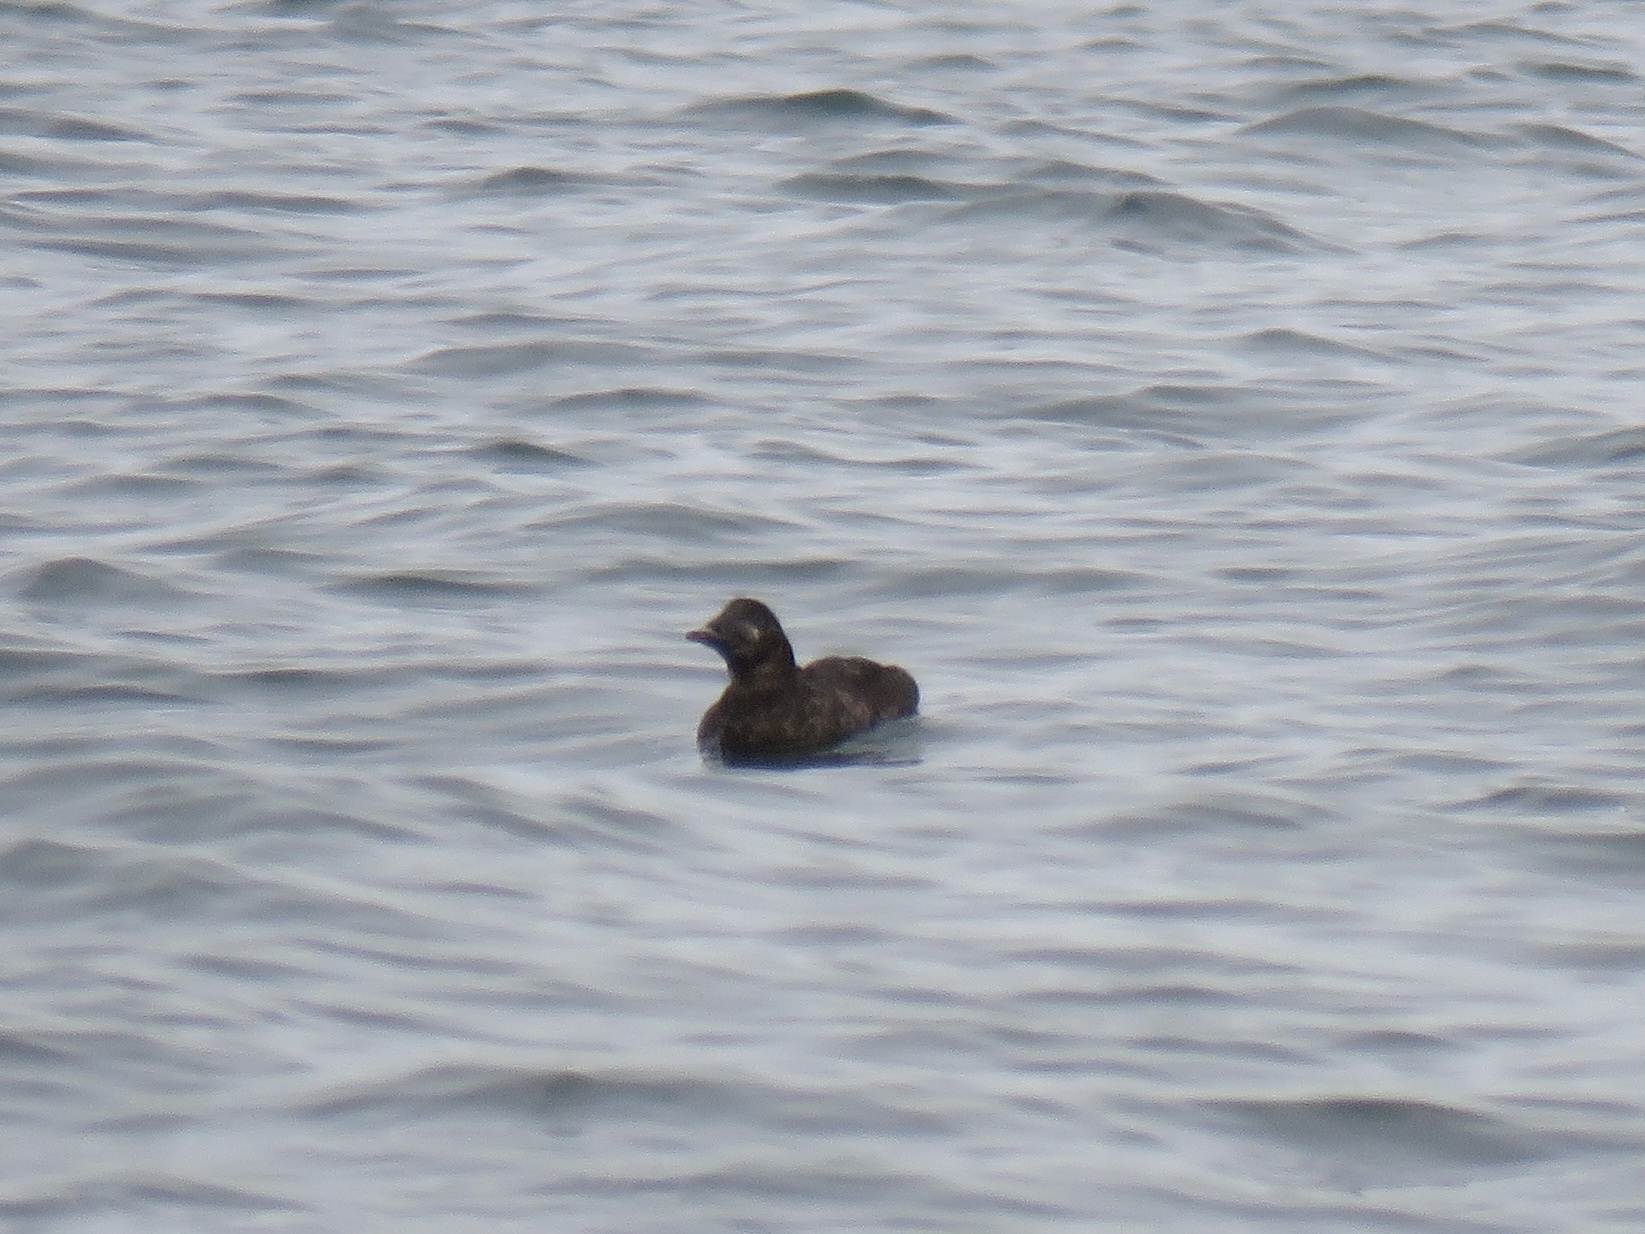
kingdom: Animalia
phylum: Chordata
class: Aves
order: Anseriformes
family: Anatidae
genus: Melanitta
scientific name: Melanitta perspicillata
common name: Surf scoter
